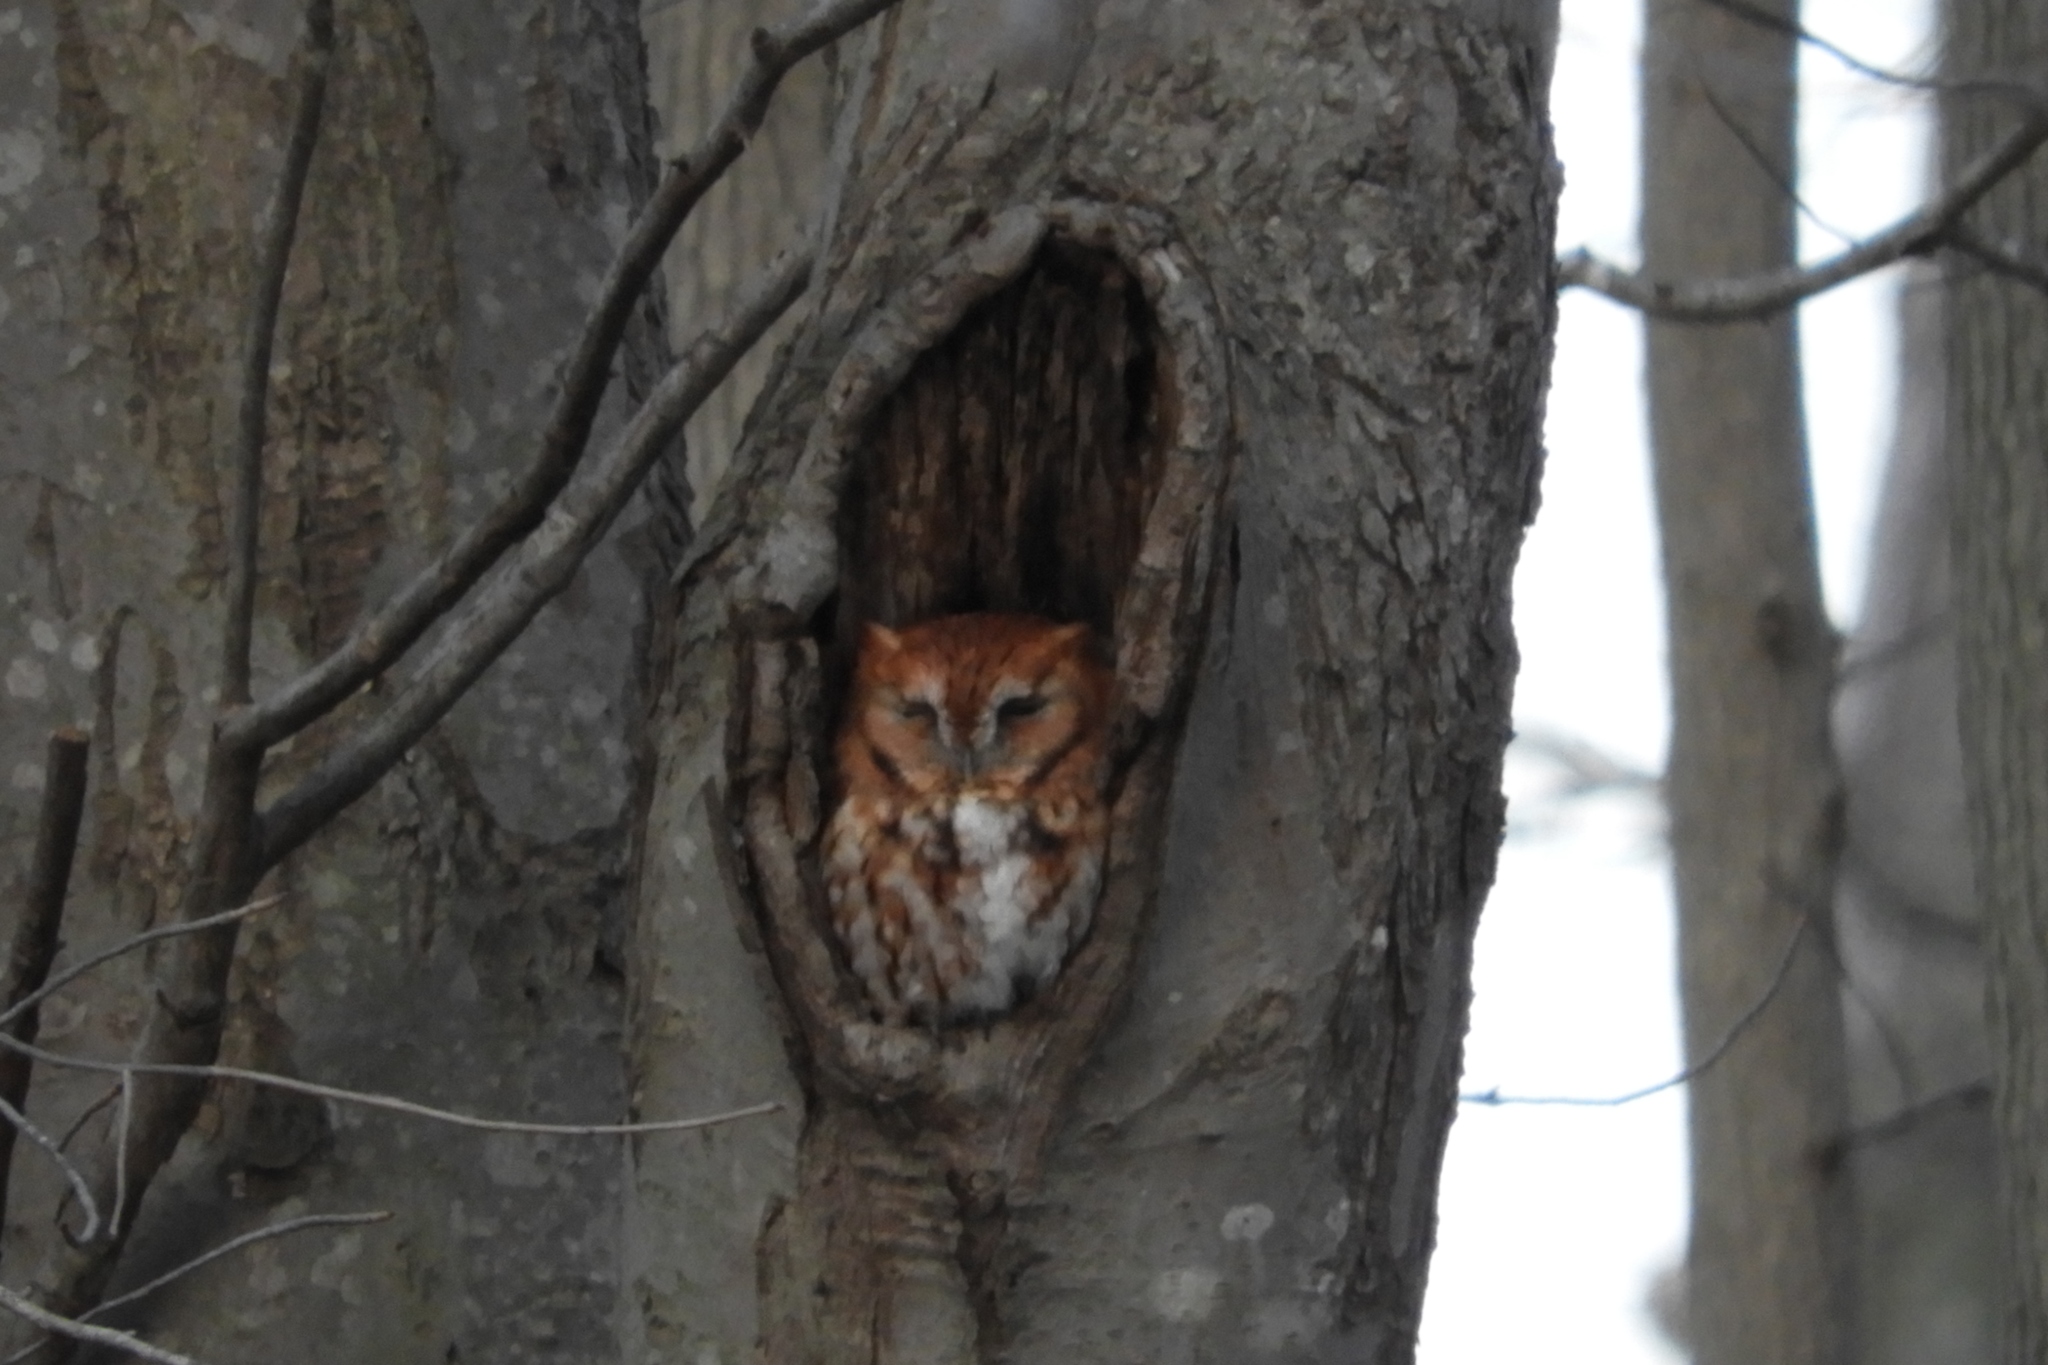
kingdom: Animalia
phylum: Chordata
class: Aves
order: Strigiformes
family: Strigidae
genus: Megascops
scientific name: Megascops asio
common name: Eastern screech-owl
